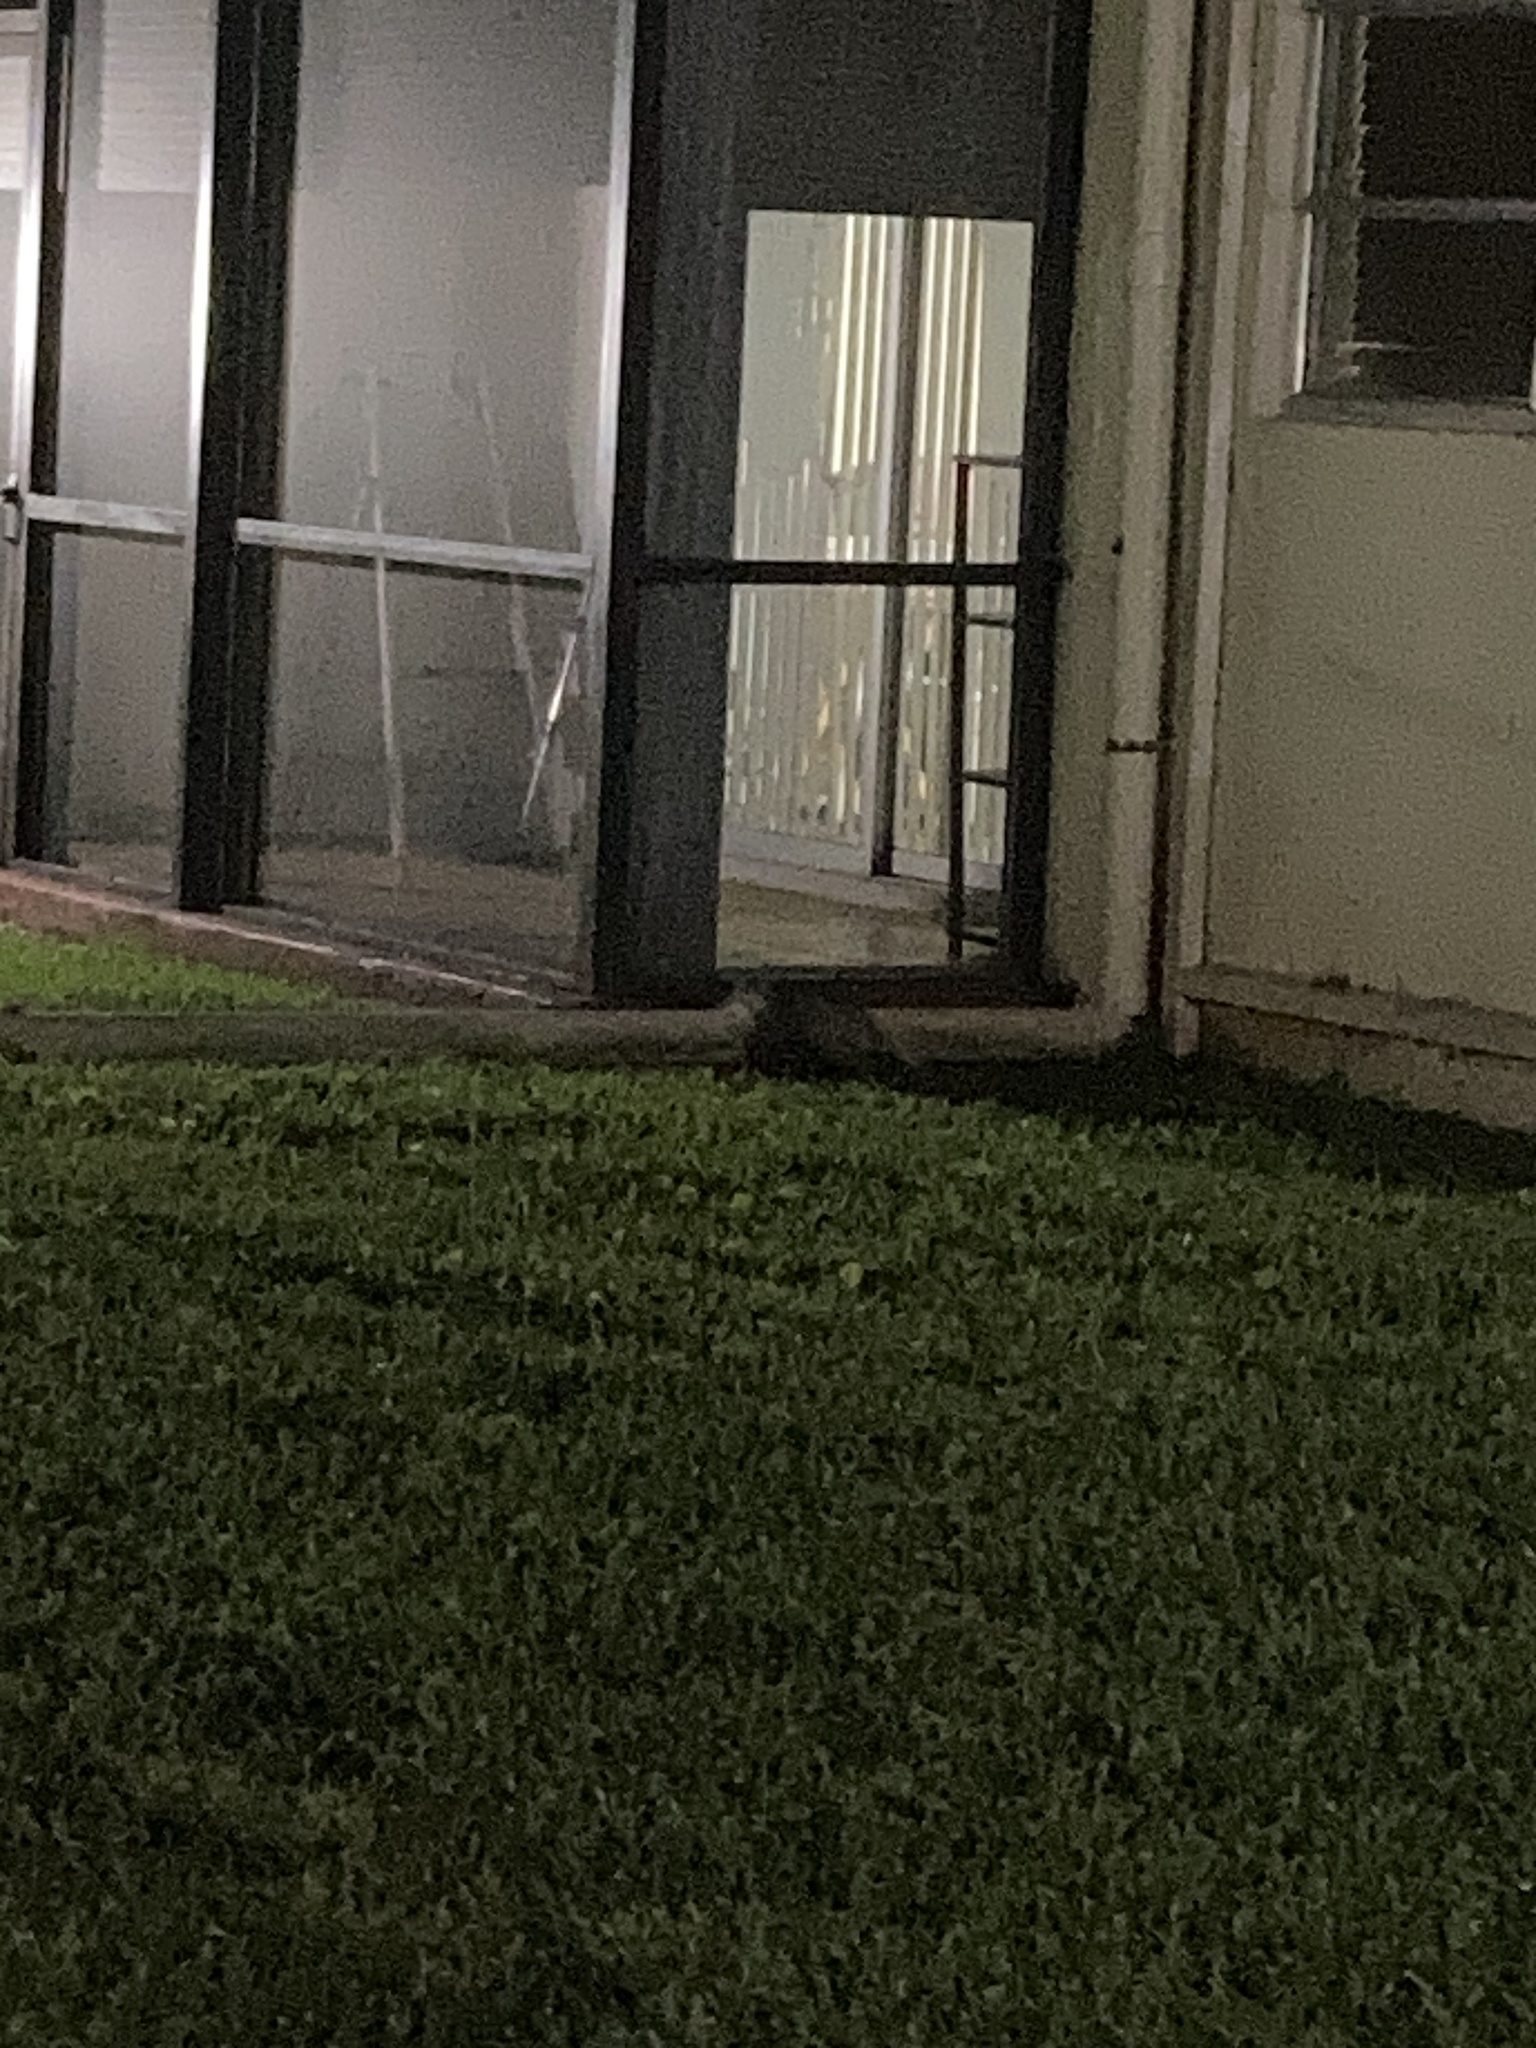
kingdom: Animalia
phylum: Chordata
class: Mammalia
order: Didelphimorphia
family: Didelphidae
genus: Didelphis
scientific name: Didelphis virginiana
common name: Virginia opossum
